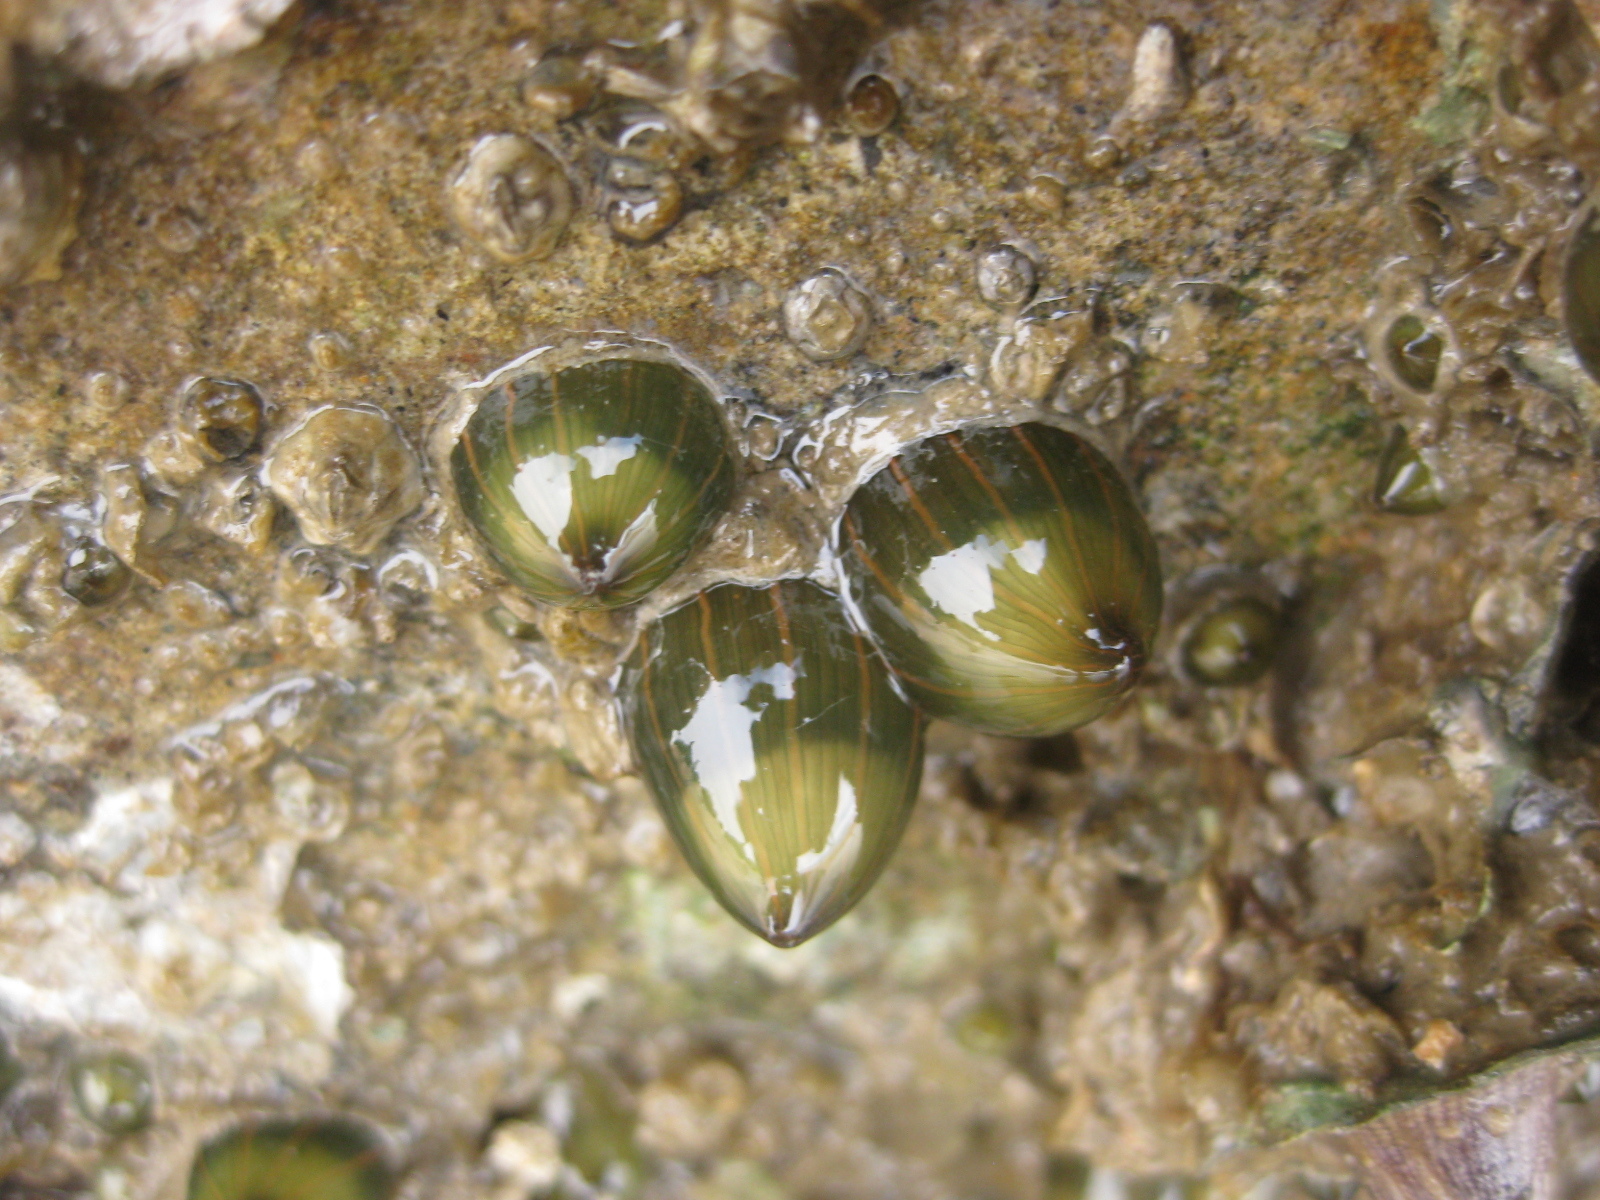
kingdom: Animalia
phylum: Cnidaria
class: Anthozoa
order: Actiniaria
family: Diadumenidae
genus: Diadumene
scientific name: Diadumene lineata
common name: Orange-striped anemone
